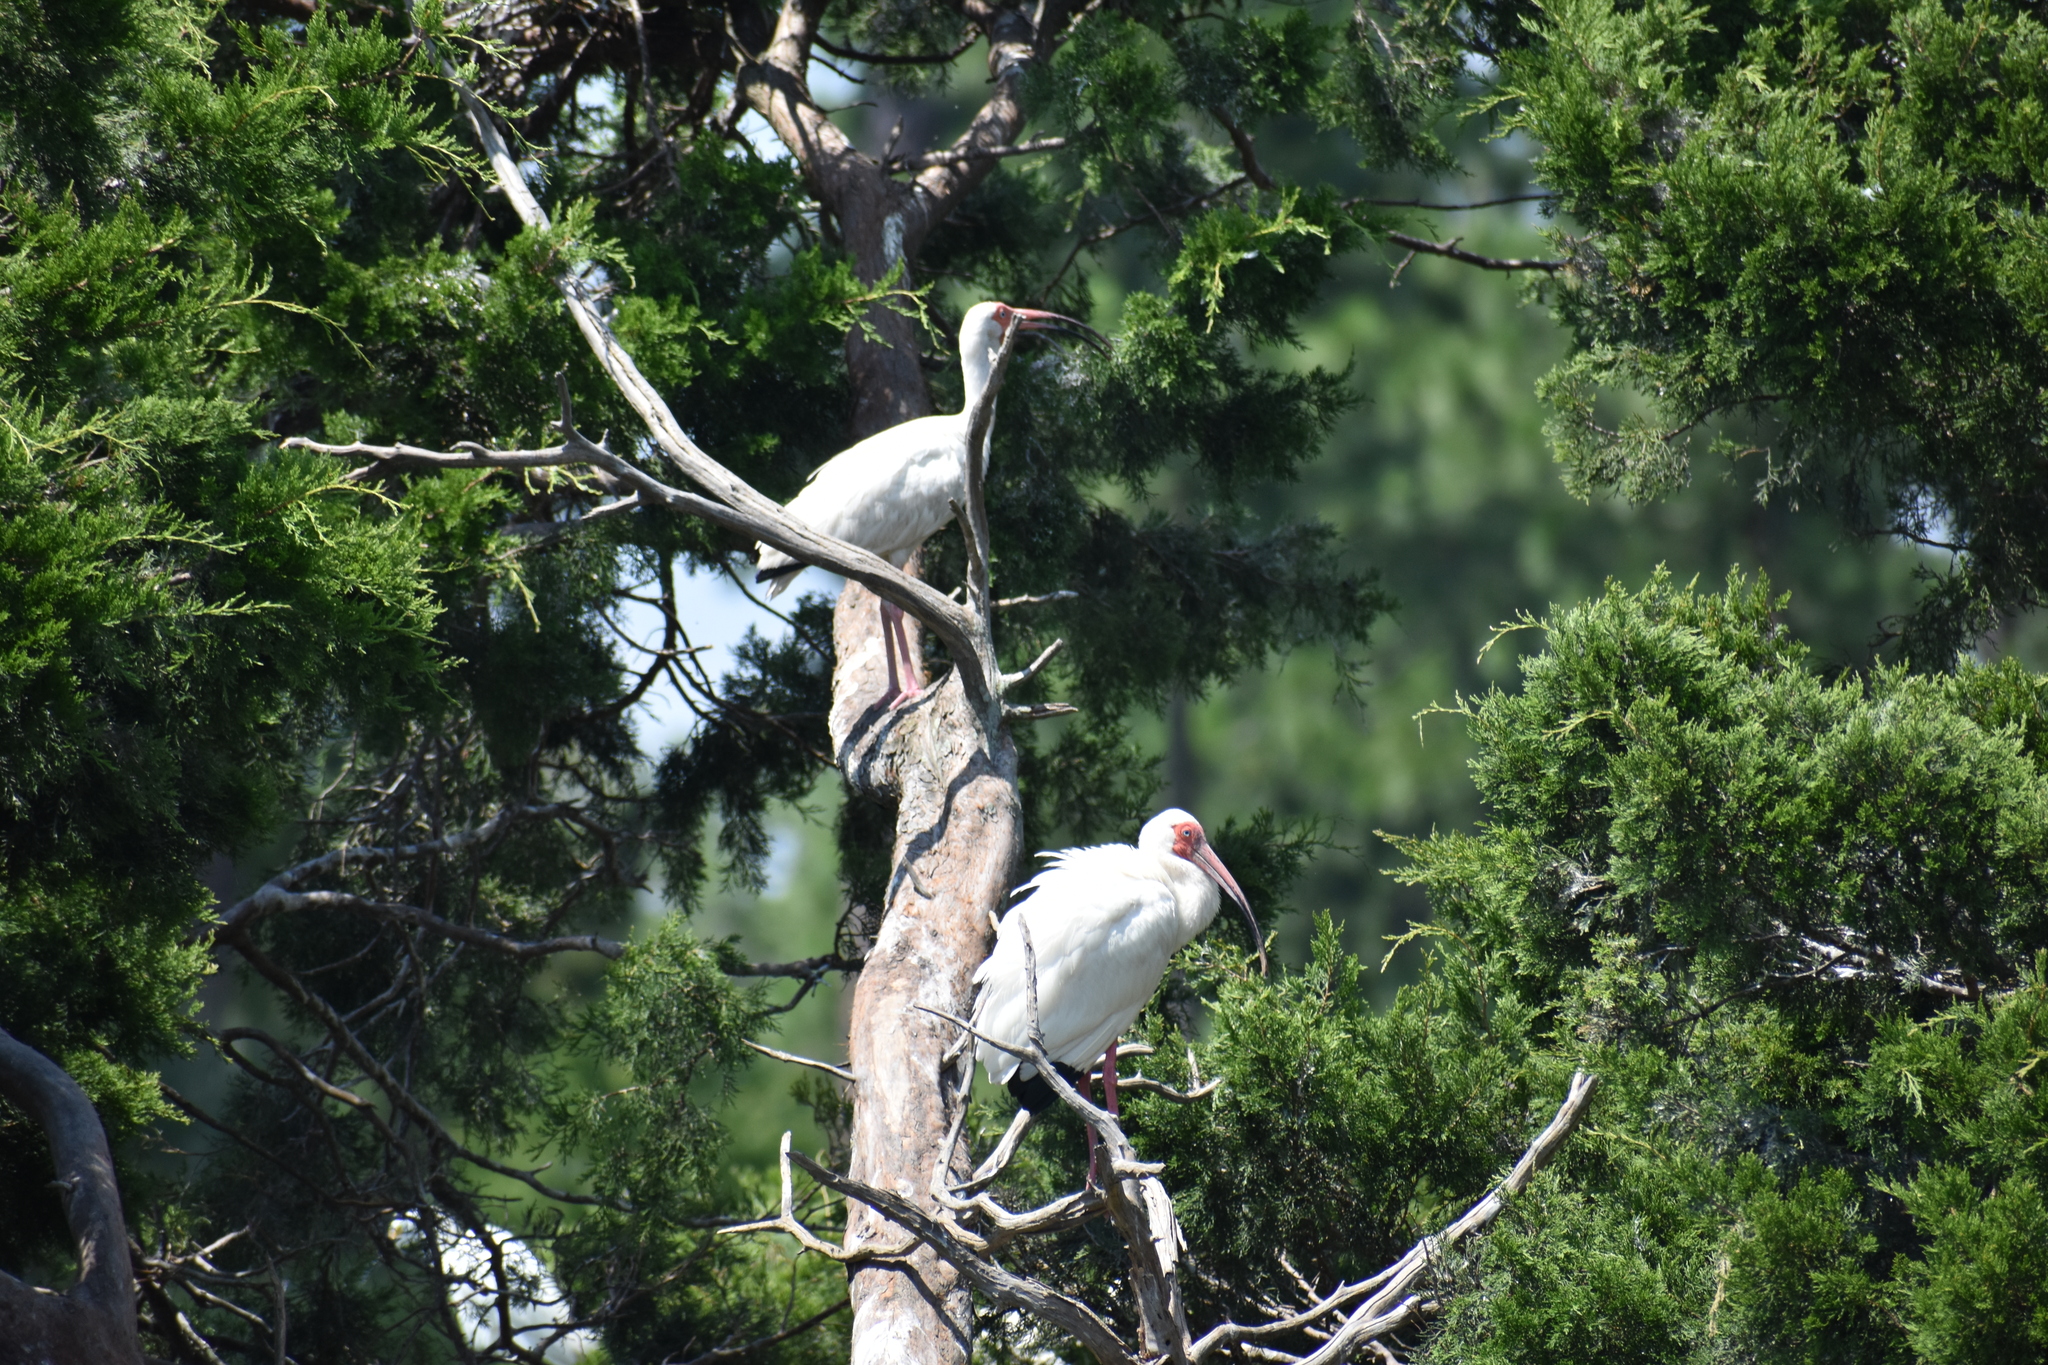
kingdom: Animalia
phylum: Chordata
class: Aves
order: Pelecaniformes
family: Threskiornithidae
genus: Eudocimus
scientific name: Eudocimus albus
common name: White ibis
